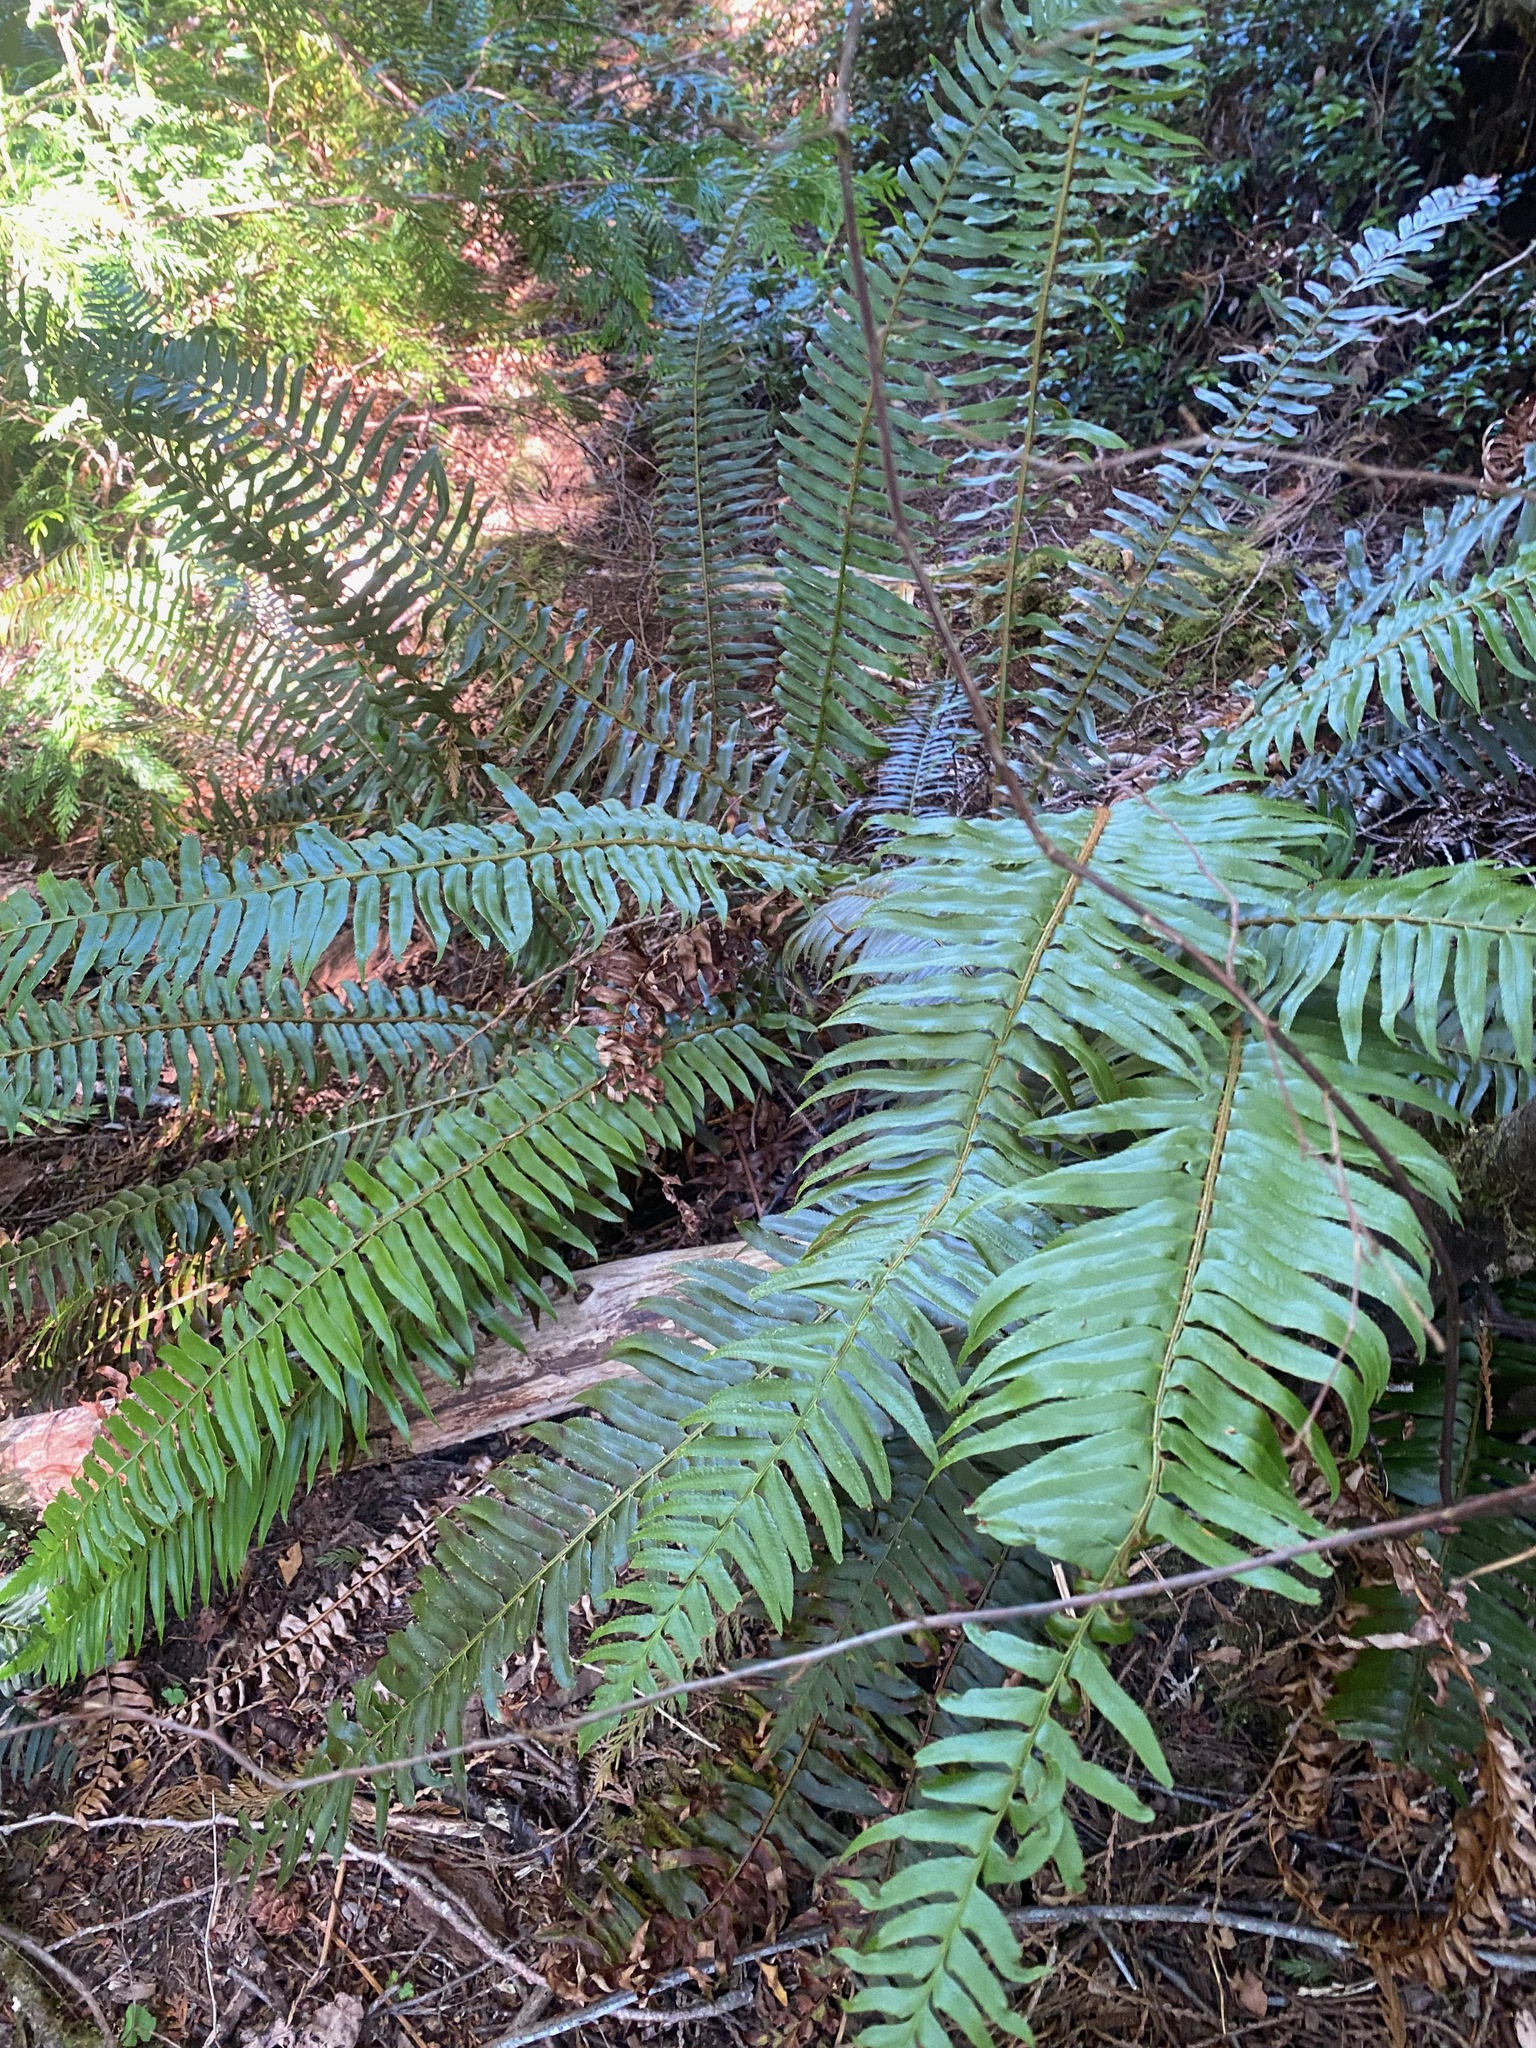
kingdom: Plantae
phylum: Tracheophyta
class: Polypodiopsida
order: Polypodiales
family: Dryopteridaceae
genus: Polystichum
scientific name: Polystichum munitum
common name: Western sword-fern
